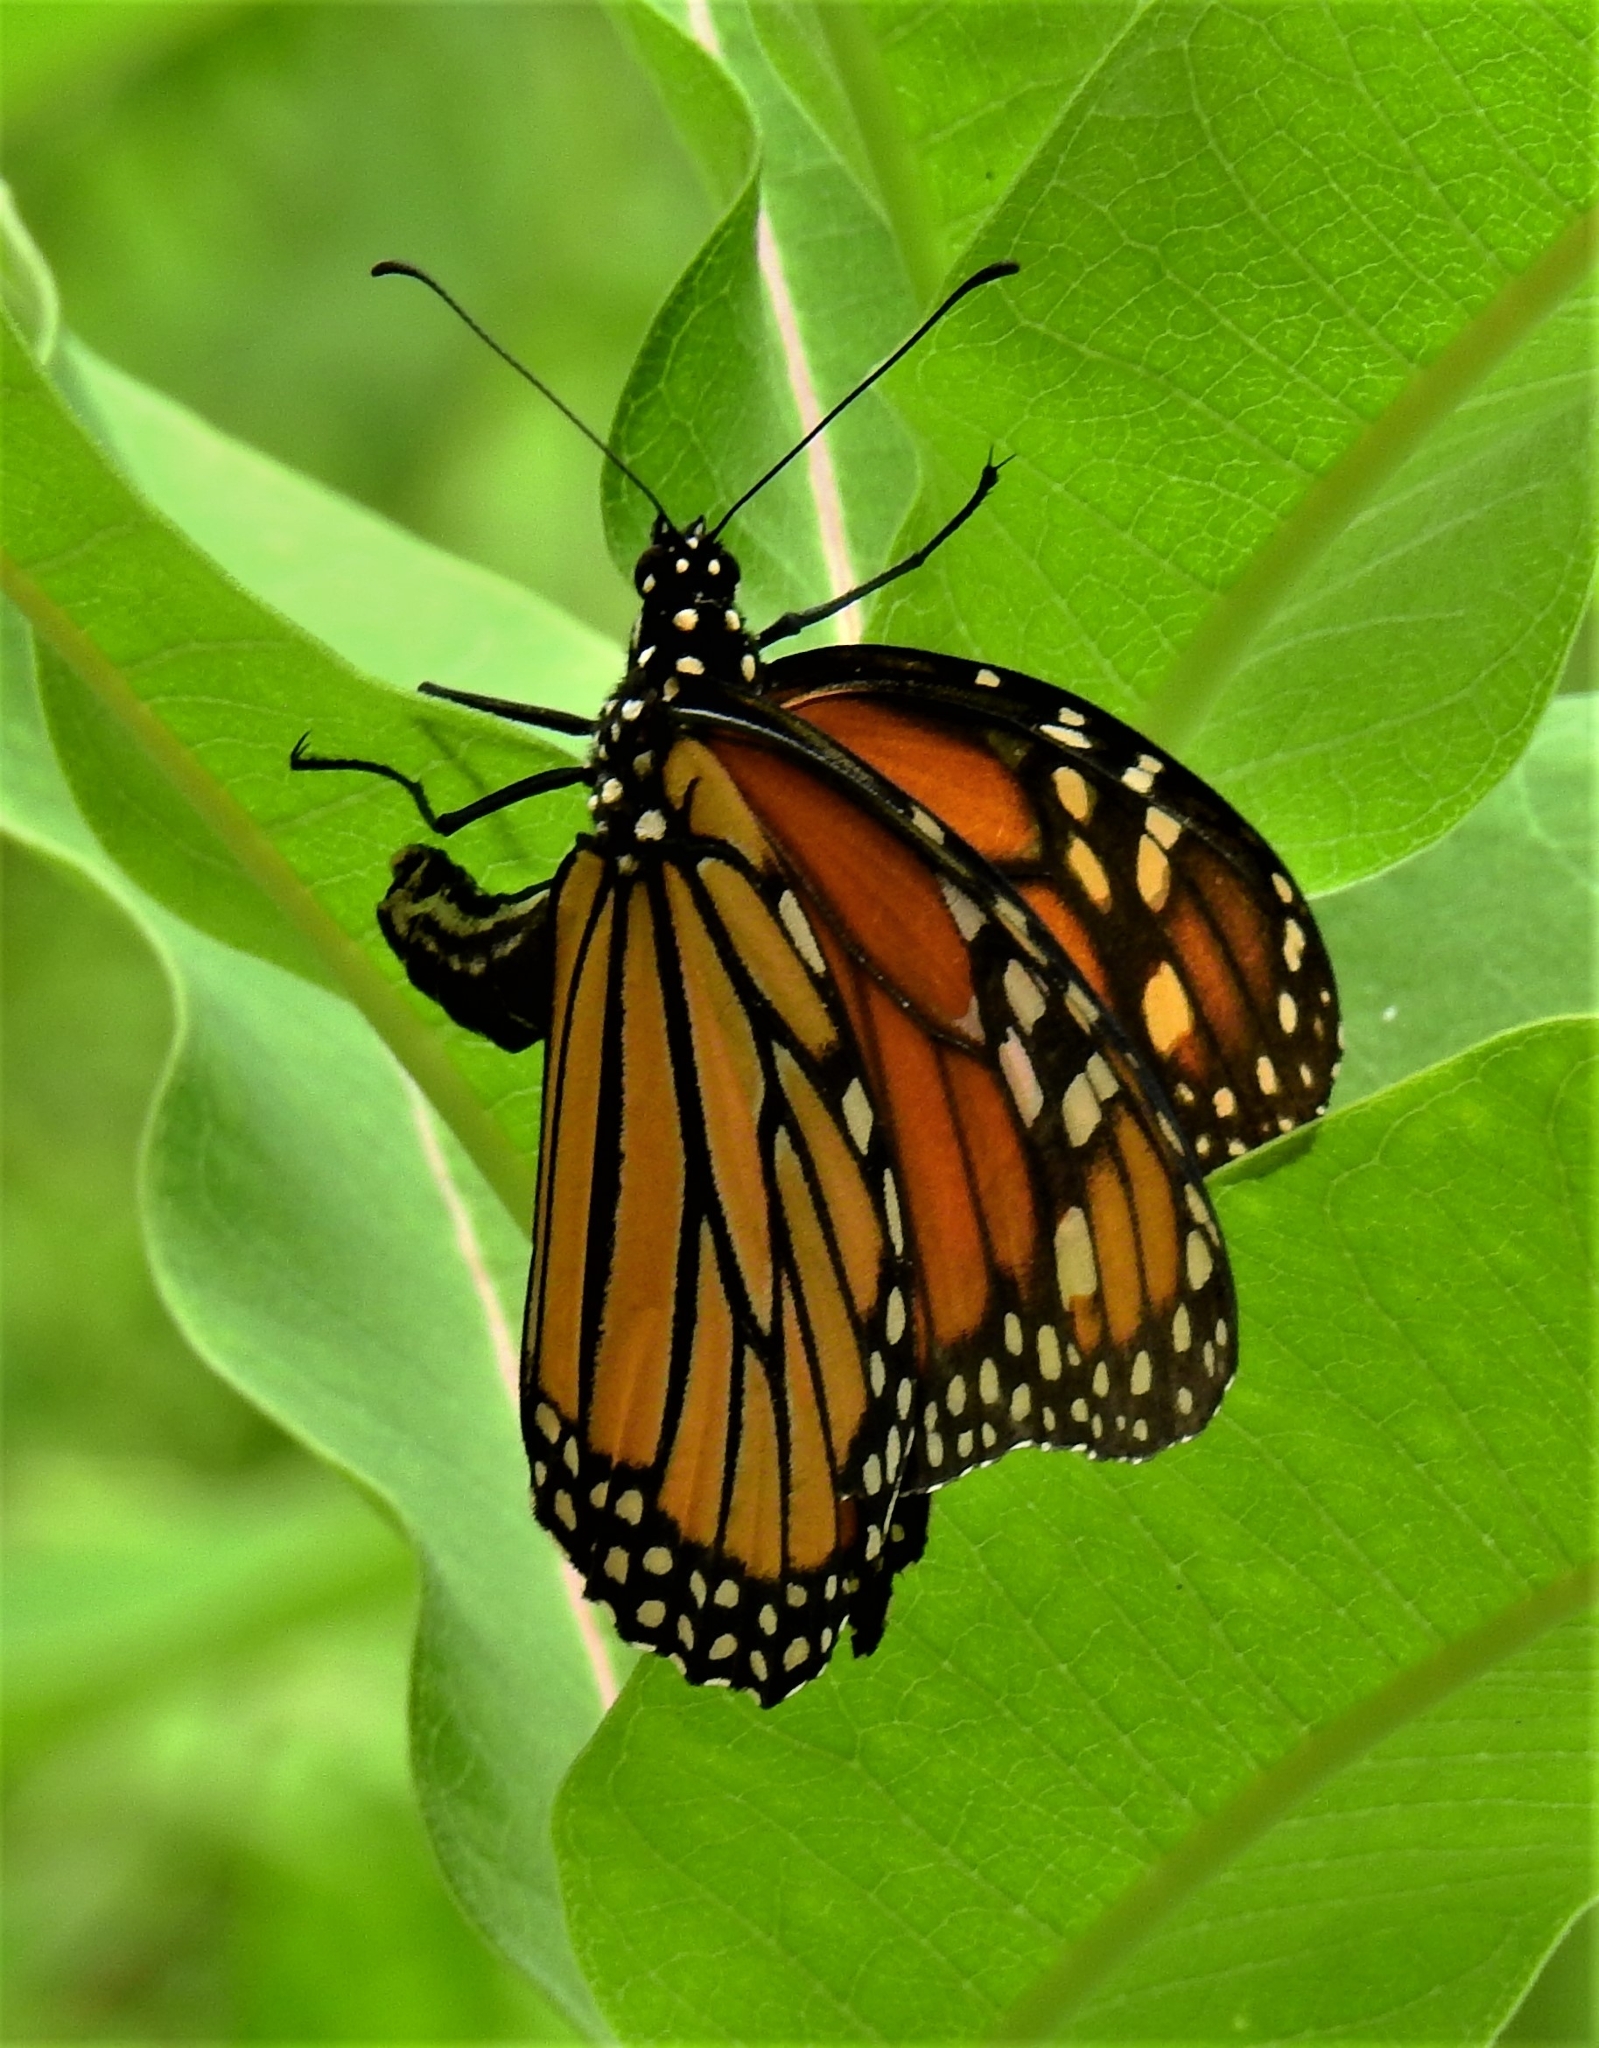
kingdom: Animalia
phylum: Arthropoda
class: Insecta
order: Lepidoptera
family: Nymphalidae
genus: Danaus
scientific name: Danaus plexippus
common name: Monarch
